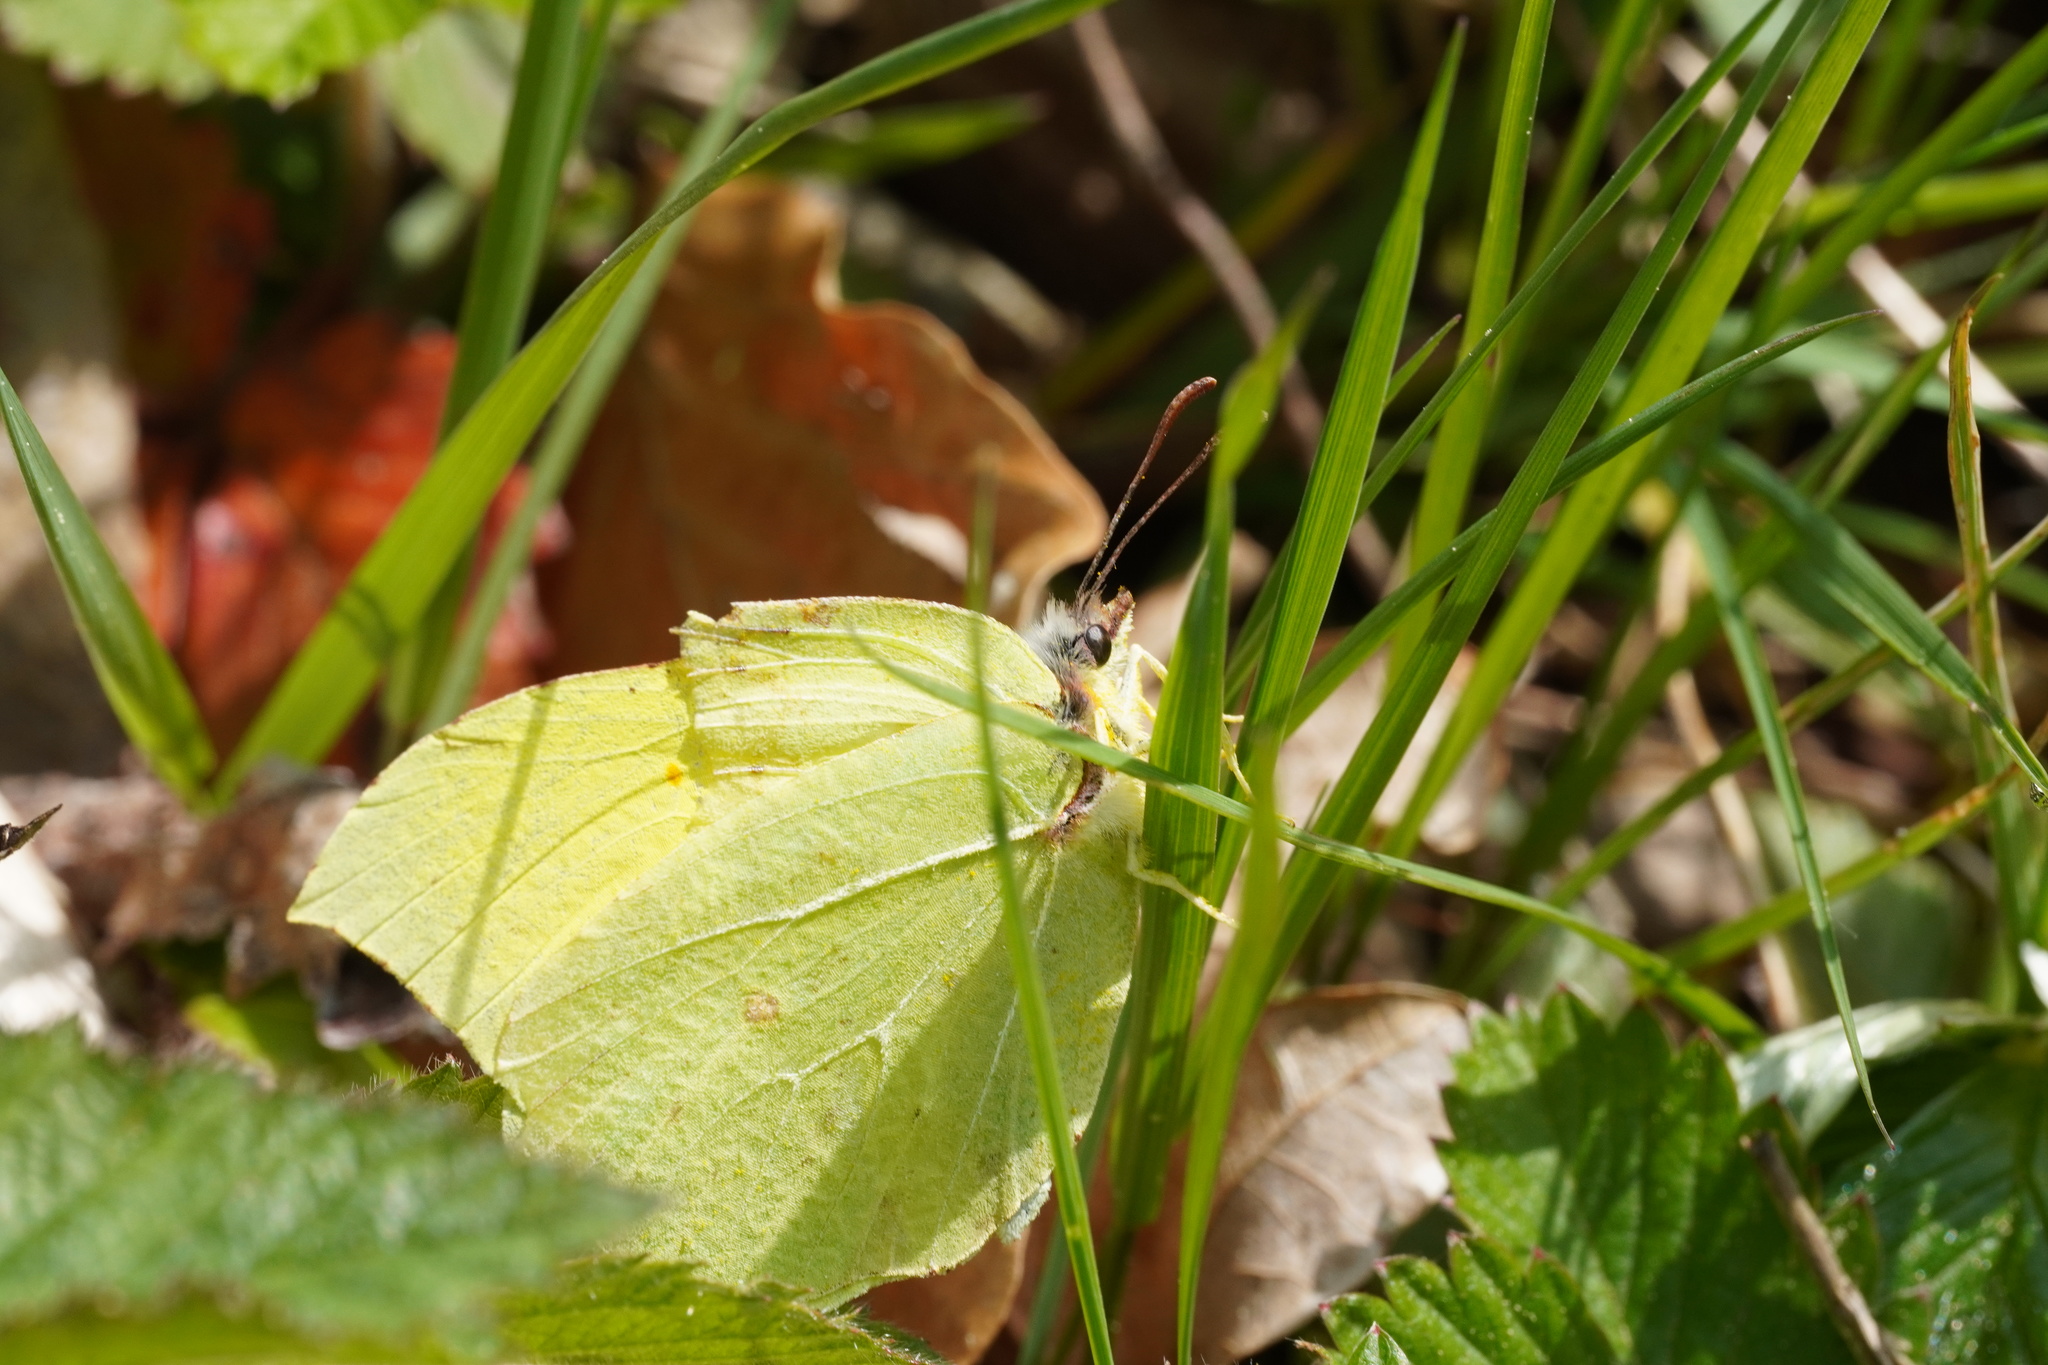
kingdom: Animalia
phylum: Arthropoda
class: Insecta
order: Lepidoptera
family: Pieridae
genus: Gonepteryx
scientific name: Gonepteryx rhamni
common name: Brimstone
